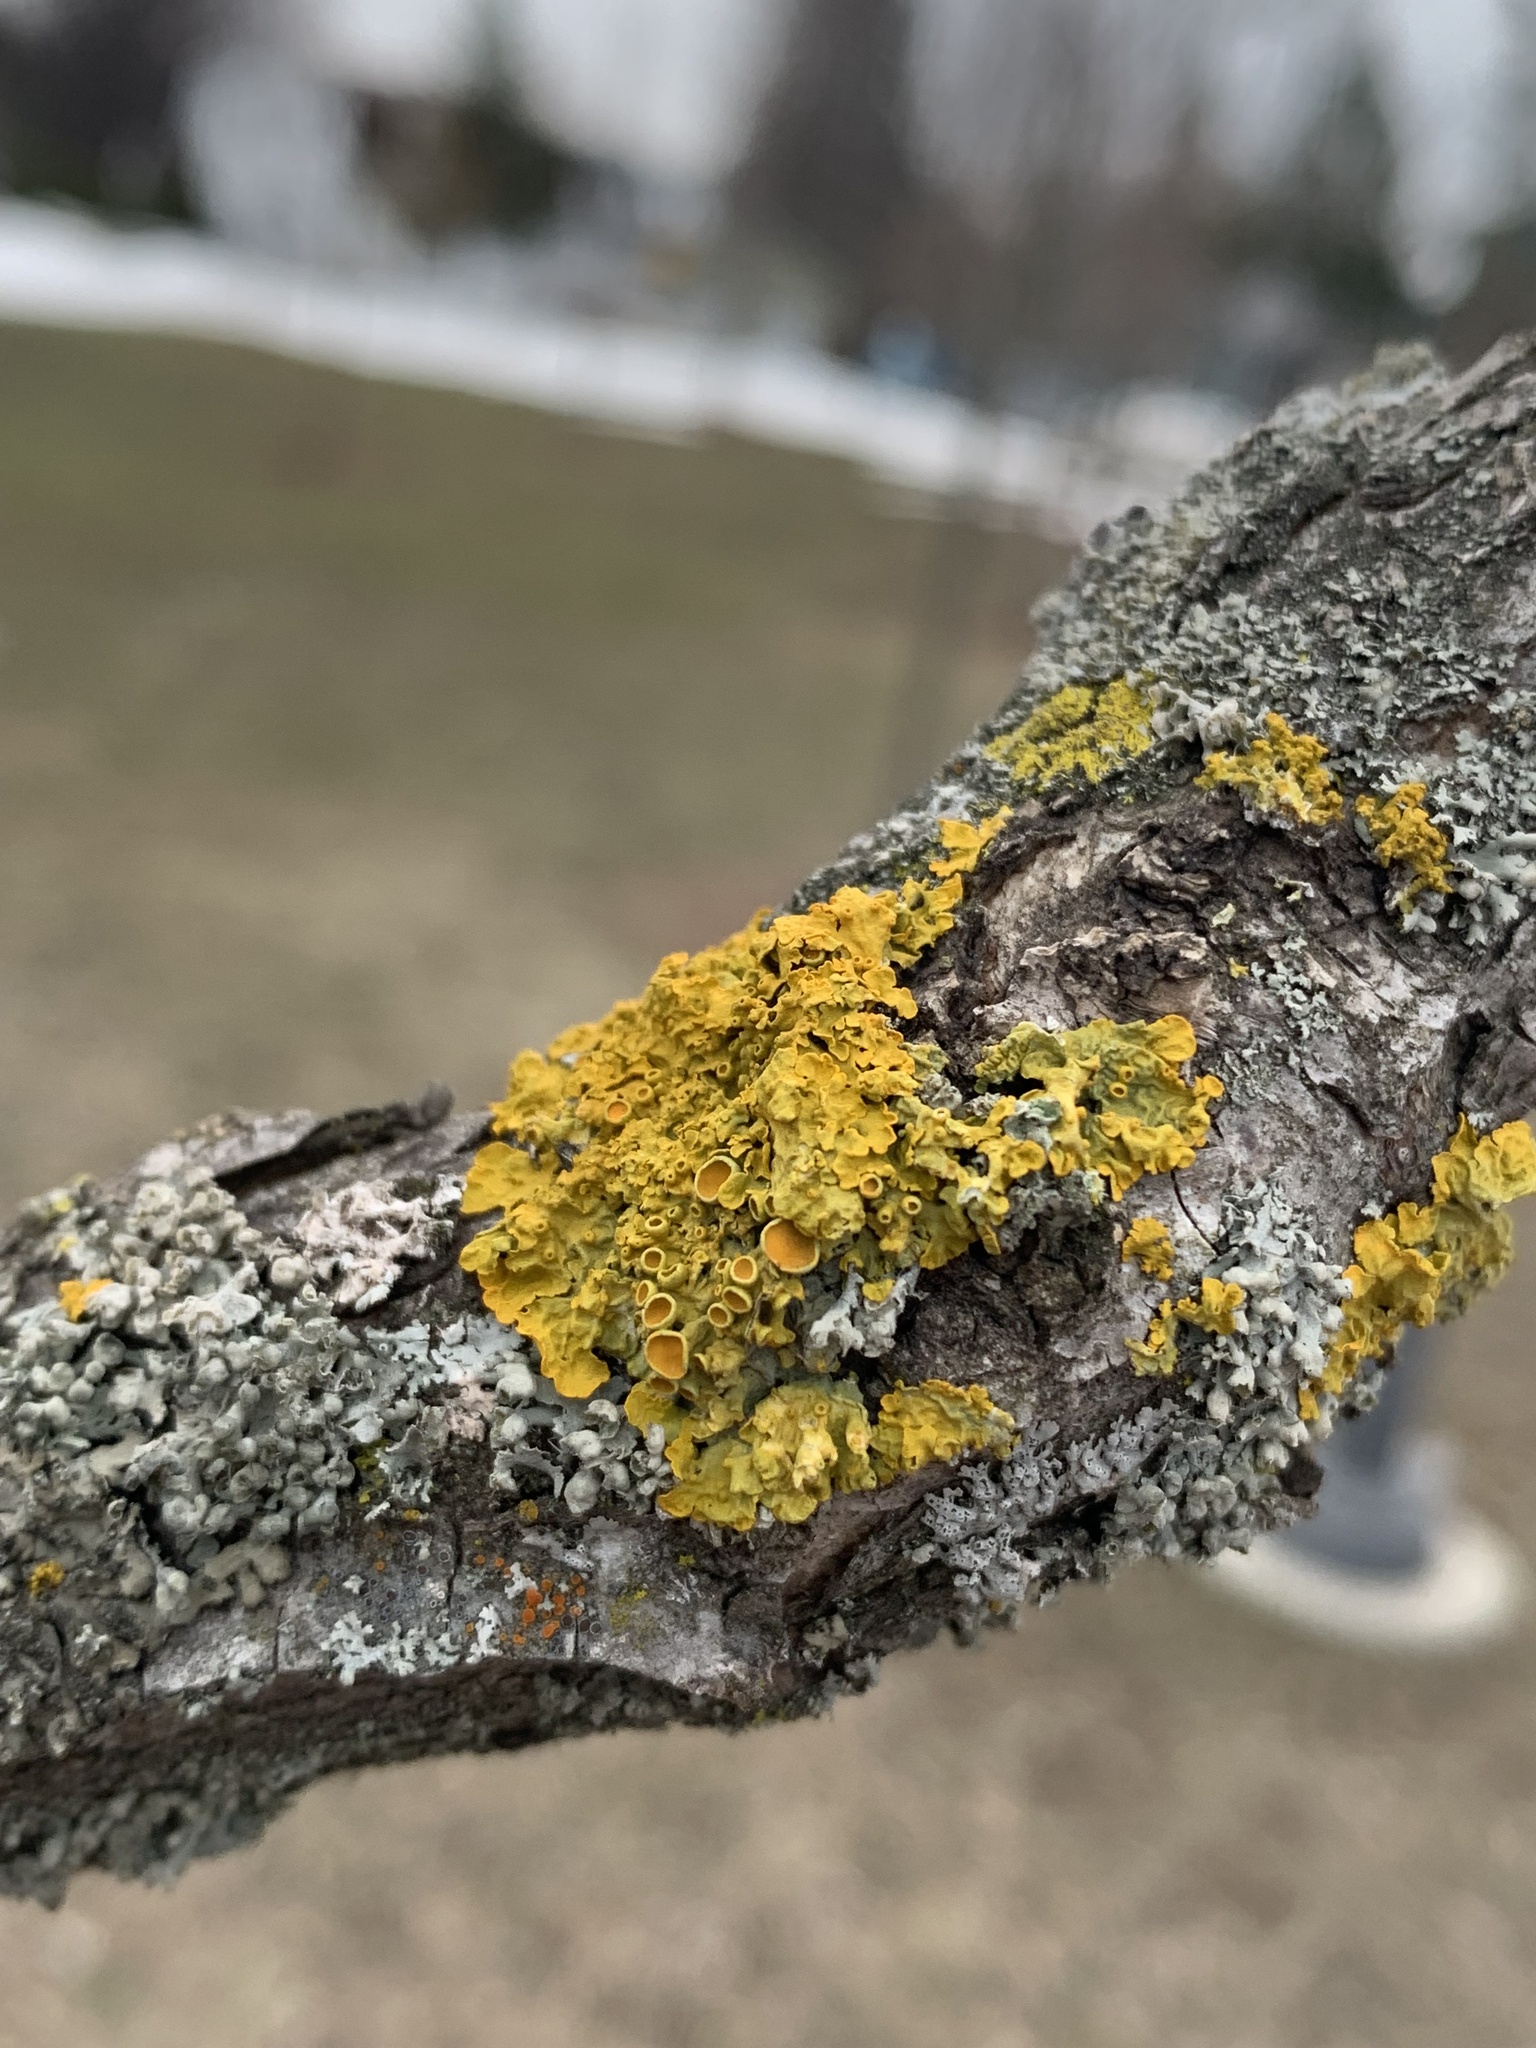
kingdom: Fungi
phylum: Ascomycota
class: Lecanoromycetes
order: Teloschistales
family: Teloschistaceae
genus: Xanthoria
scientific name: Xanthoria parietina
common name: Common orange lichen
